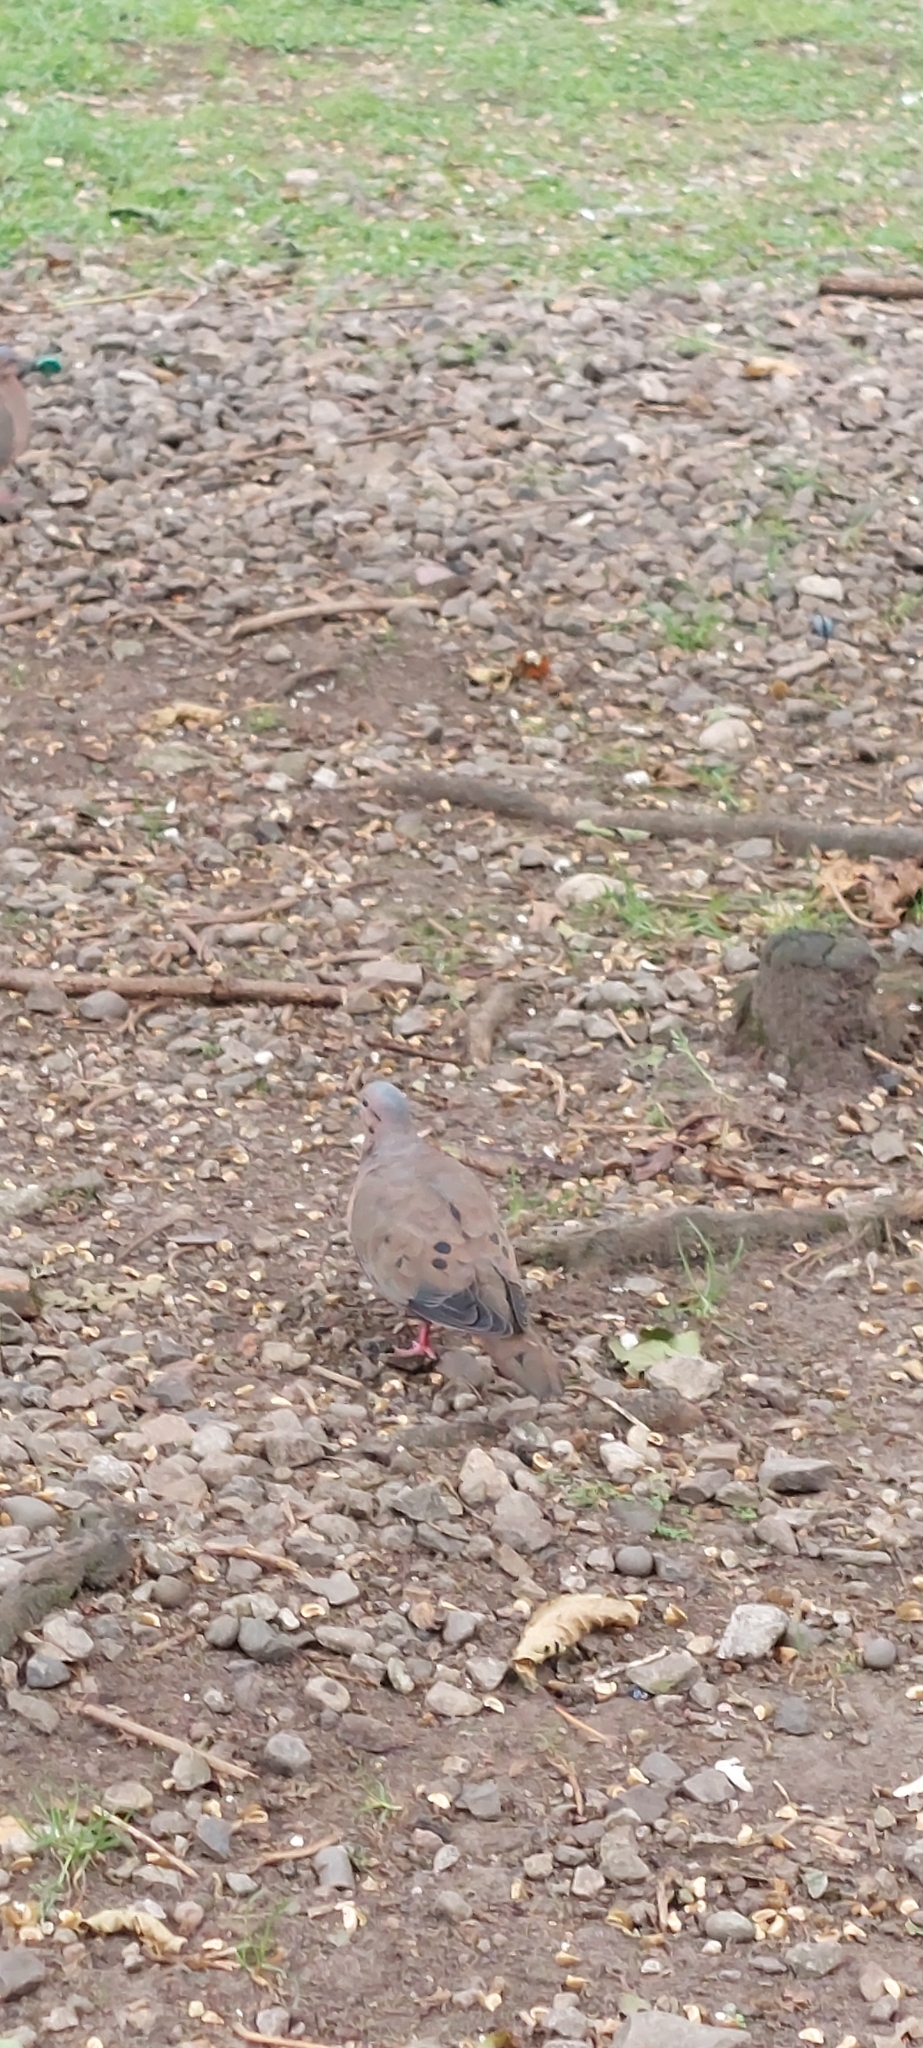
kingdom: Animalia
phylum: Chordata
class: Aves
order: Columbiformes
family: Columbidae
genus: Zenaida
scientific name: Zenaida auriculata
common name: Eared dove
